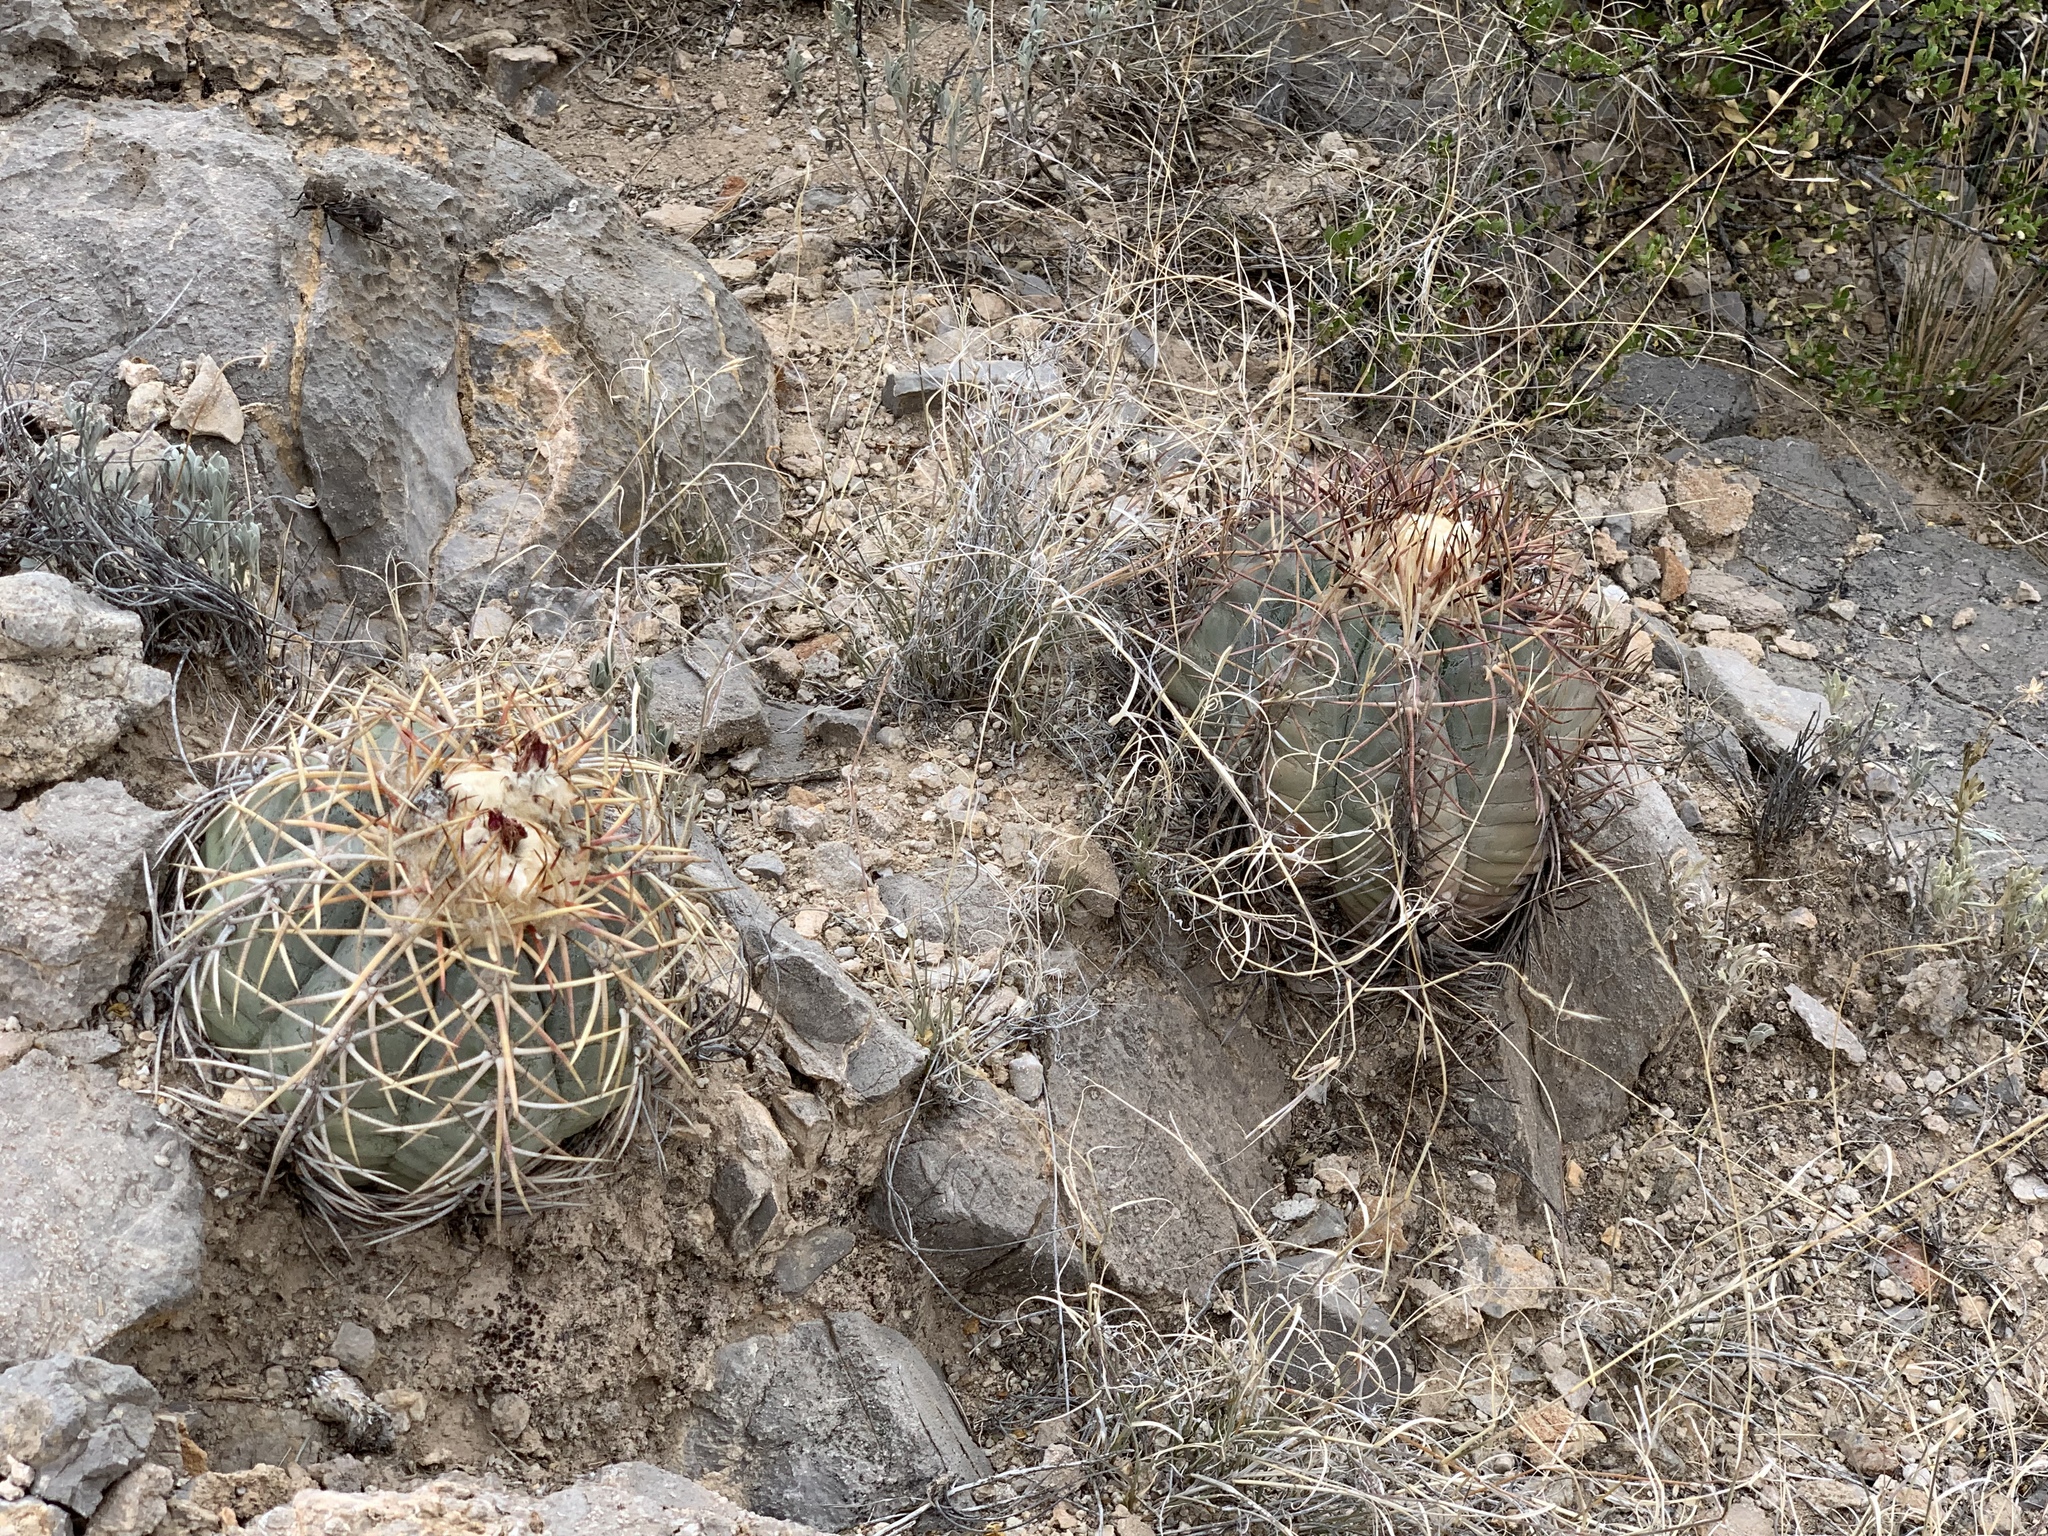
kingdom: Plantae
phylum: Tracheophyta
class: Magnoliopsida
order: Caryophyllales
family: Cactaceae
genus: Echinocactus
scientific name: Echinocactus horizonthalonius
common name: Devilshead
